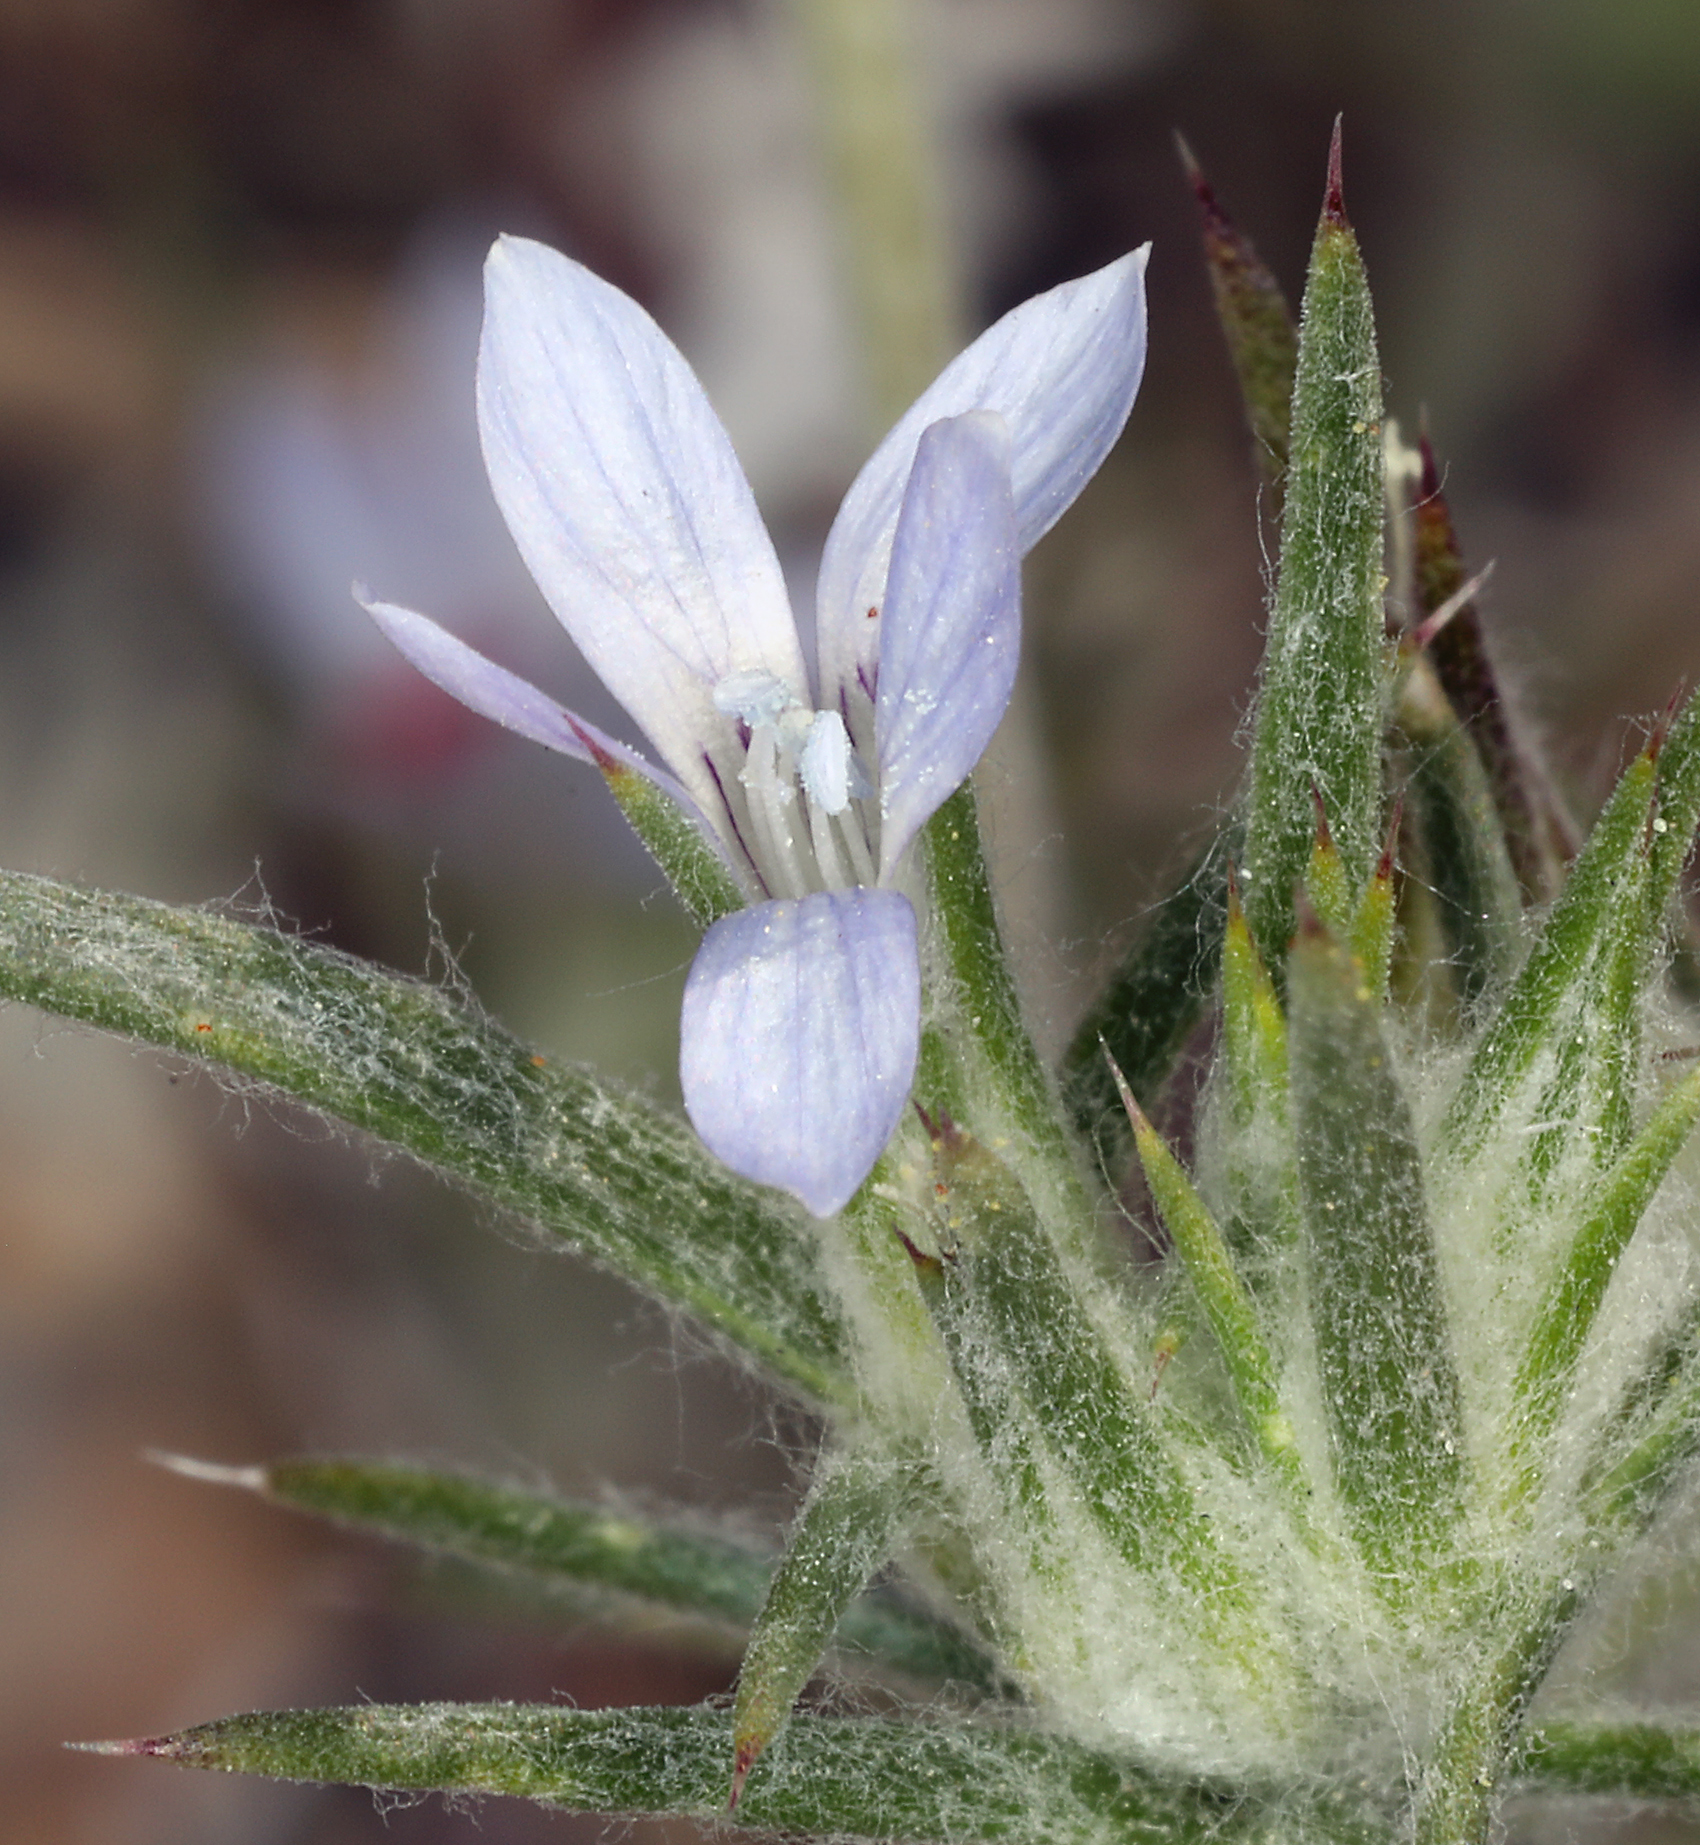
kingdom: Plantae
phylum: Tracheophyta
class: Magnoliopsida
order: Ericales
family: Polemoniaceae
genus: Eriastrum
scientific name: Eriastrum wilcoxii
